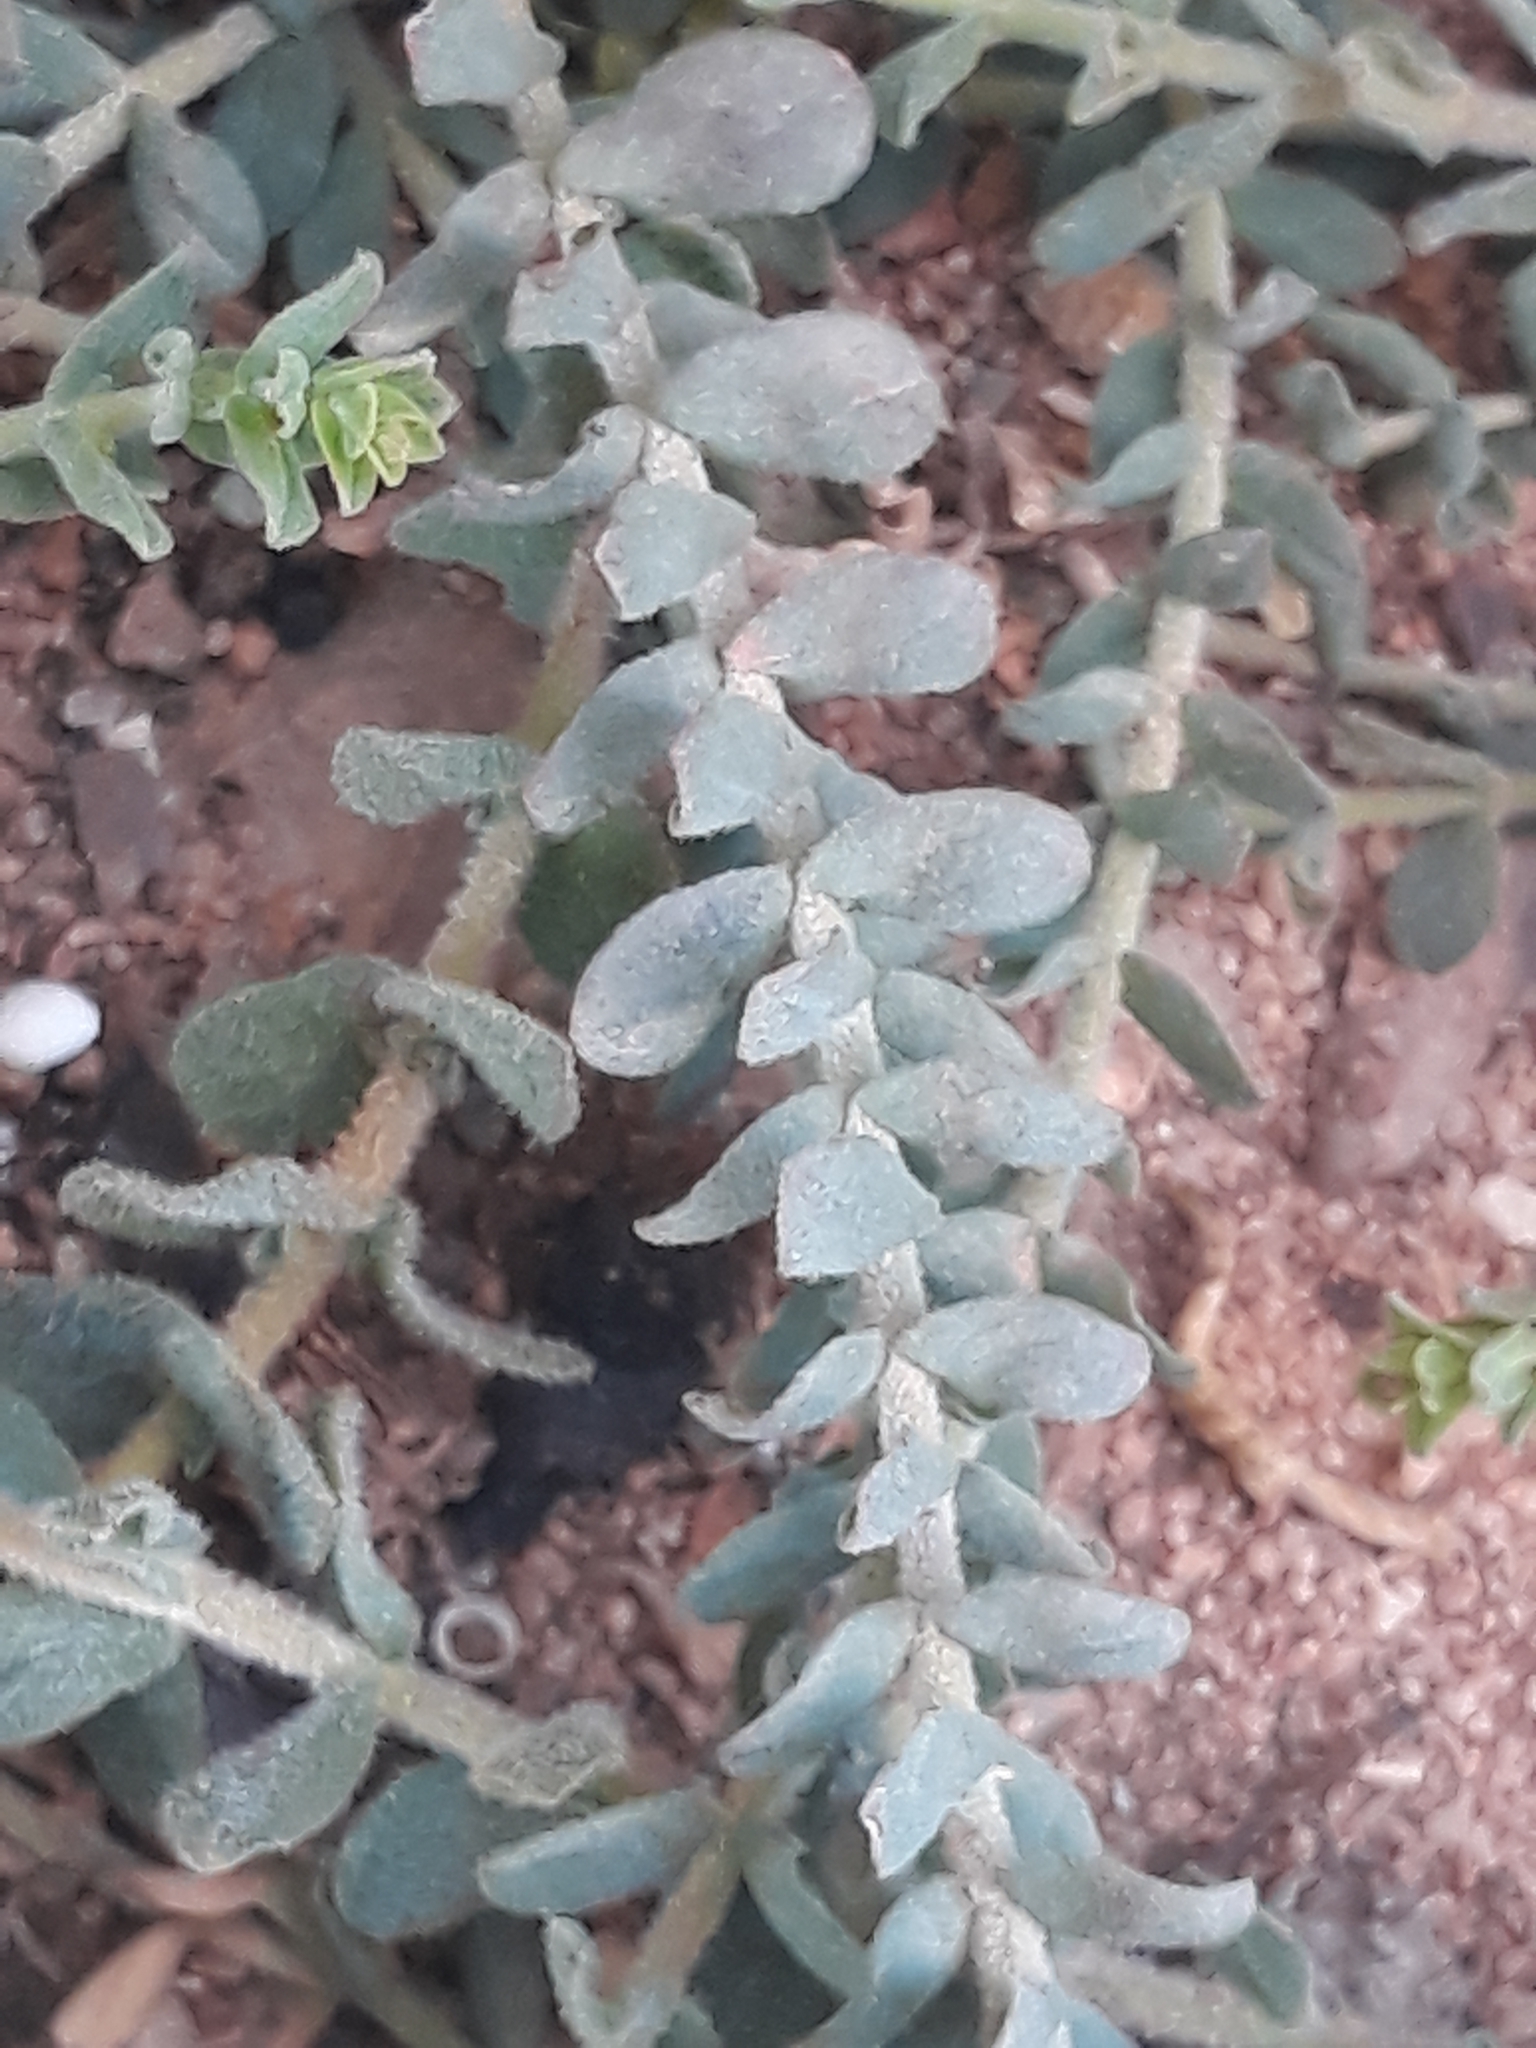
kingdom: Plantae
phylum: Tracheophyta
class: Magnoliopsida
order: Malpighiales
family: Hypericaceae
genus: Hypericum
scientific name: Hypericum tomentosum
